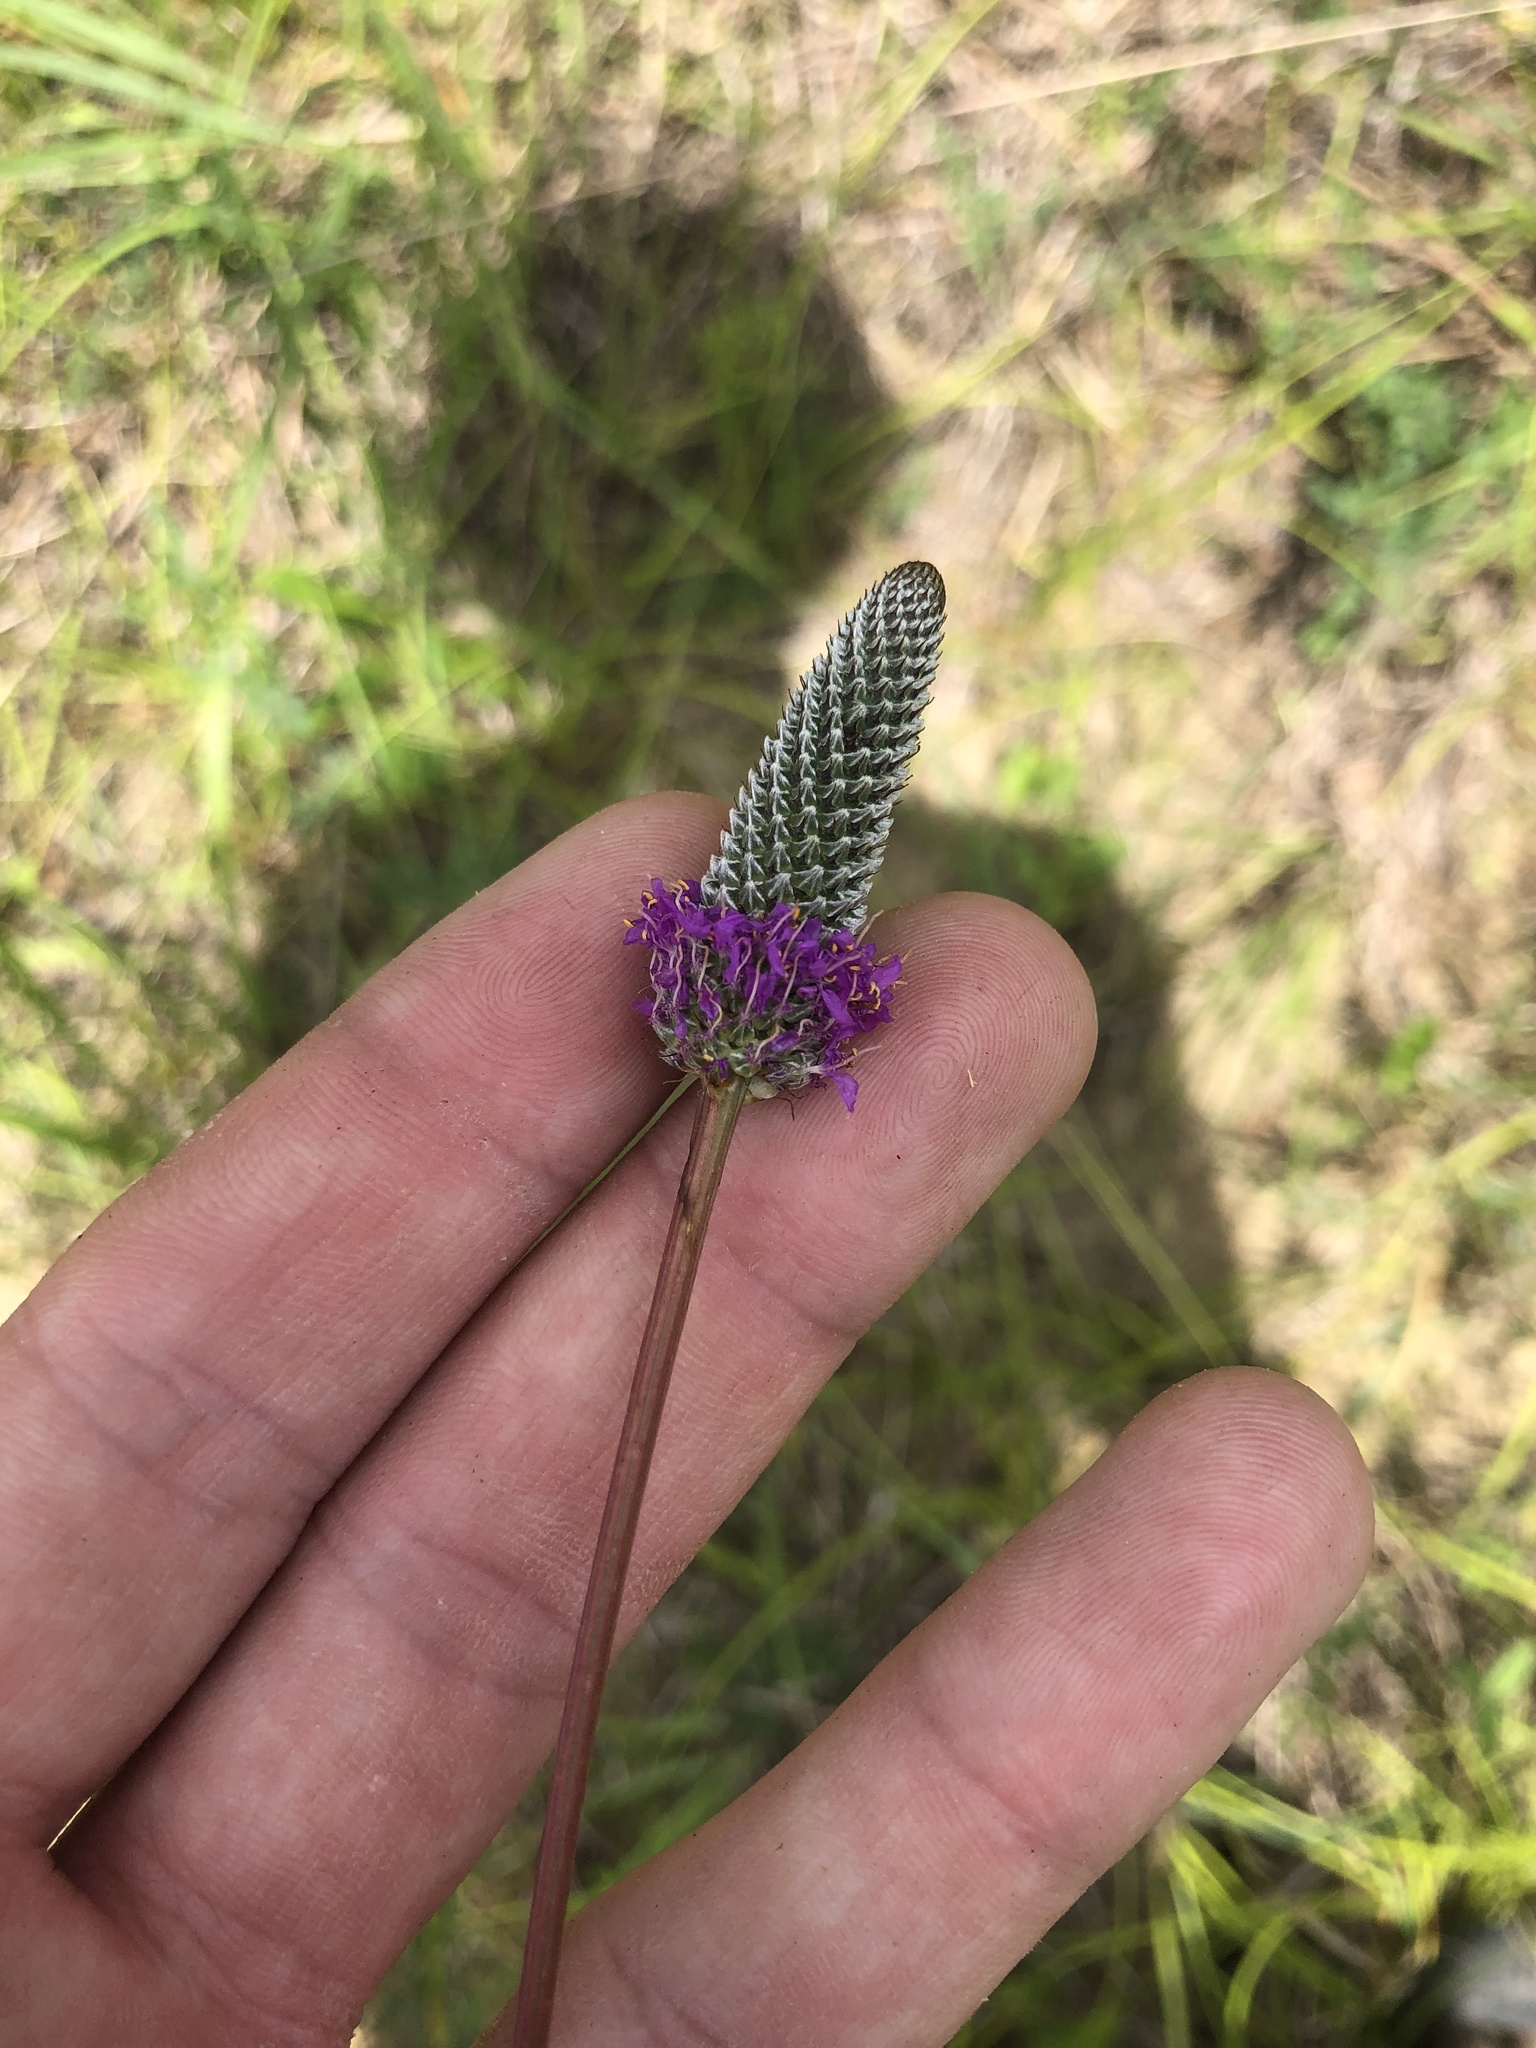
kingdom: Plantae
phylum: Tracheophyta
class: Magnoliopsida
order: Fabales
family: Fabaceae
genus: Dalea
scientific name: Dalea purpurea
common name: Purple prairie-clover
